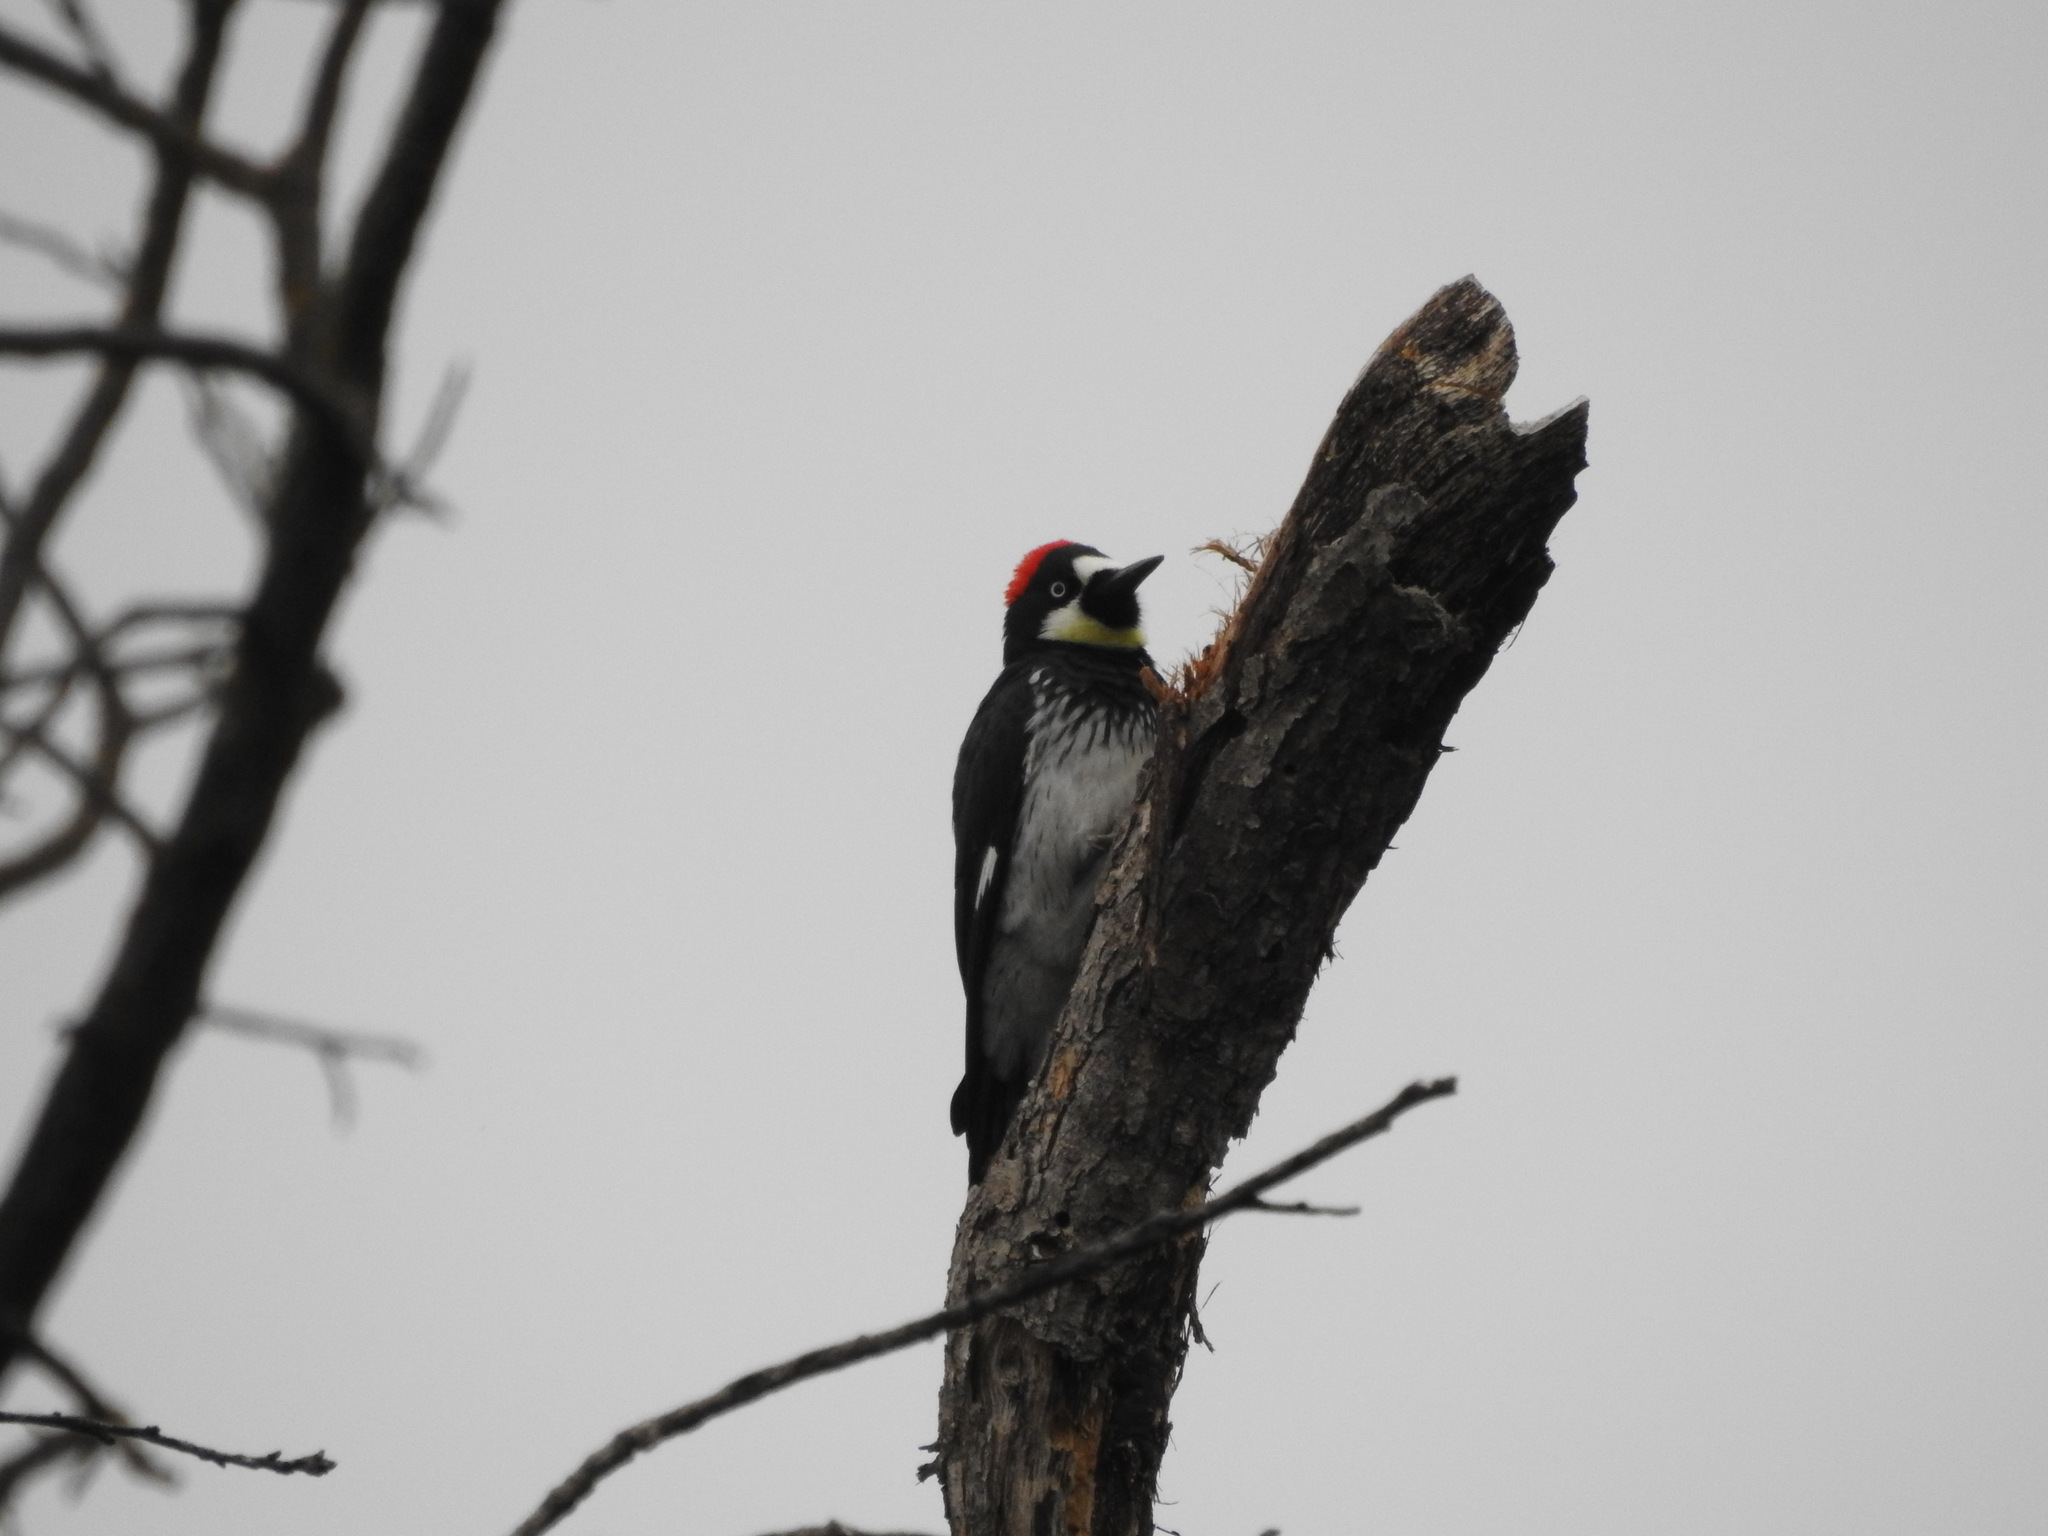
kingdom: Animalia
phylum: Chordata
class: Aves
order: Piciformes
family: Picidae
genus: Melanerpes
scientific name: Melanerpes formicivorus
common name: Acorn woodpecker
